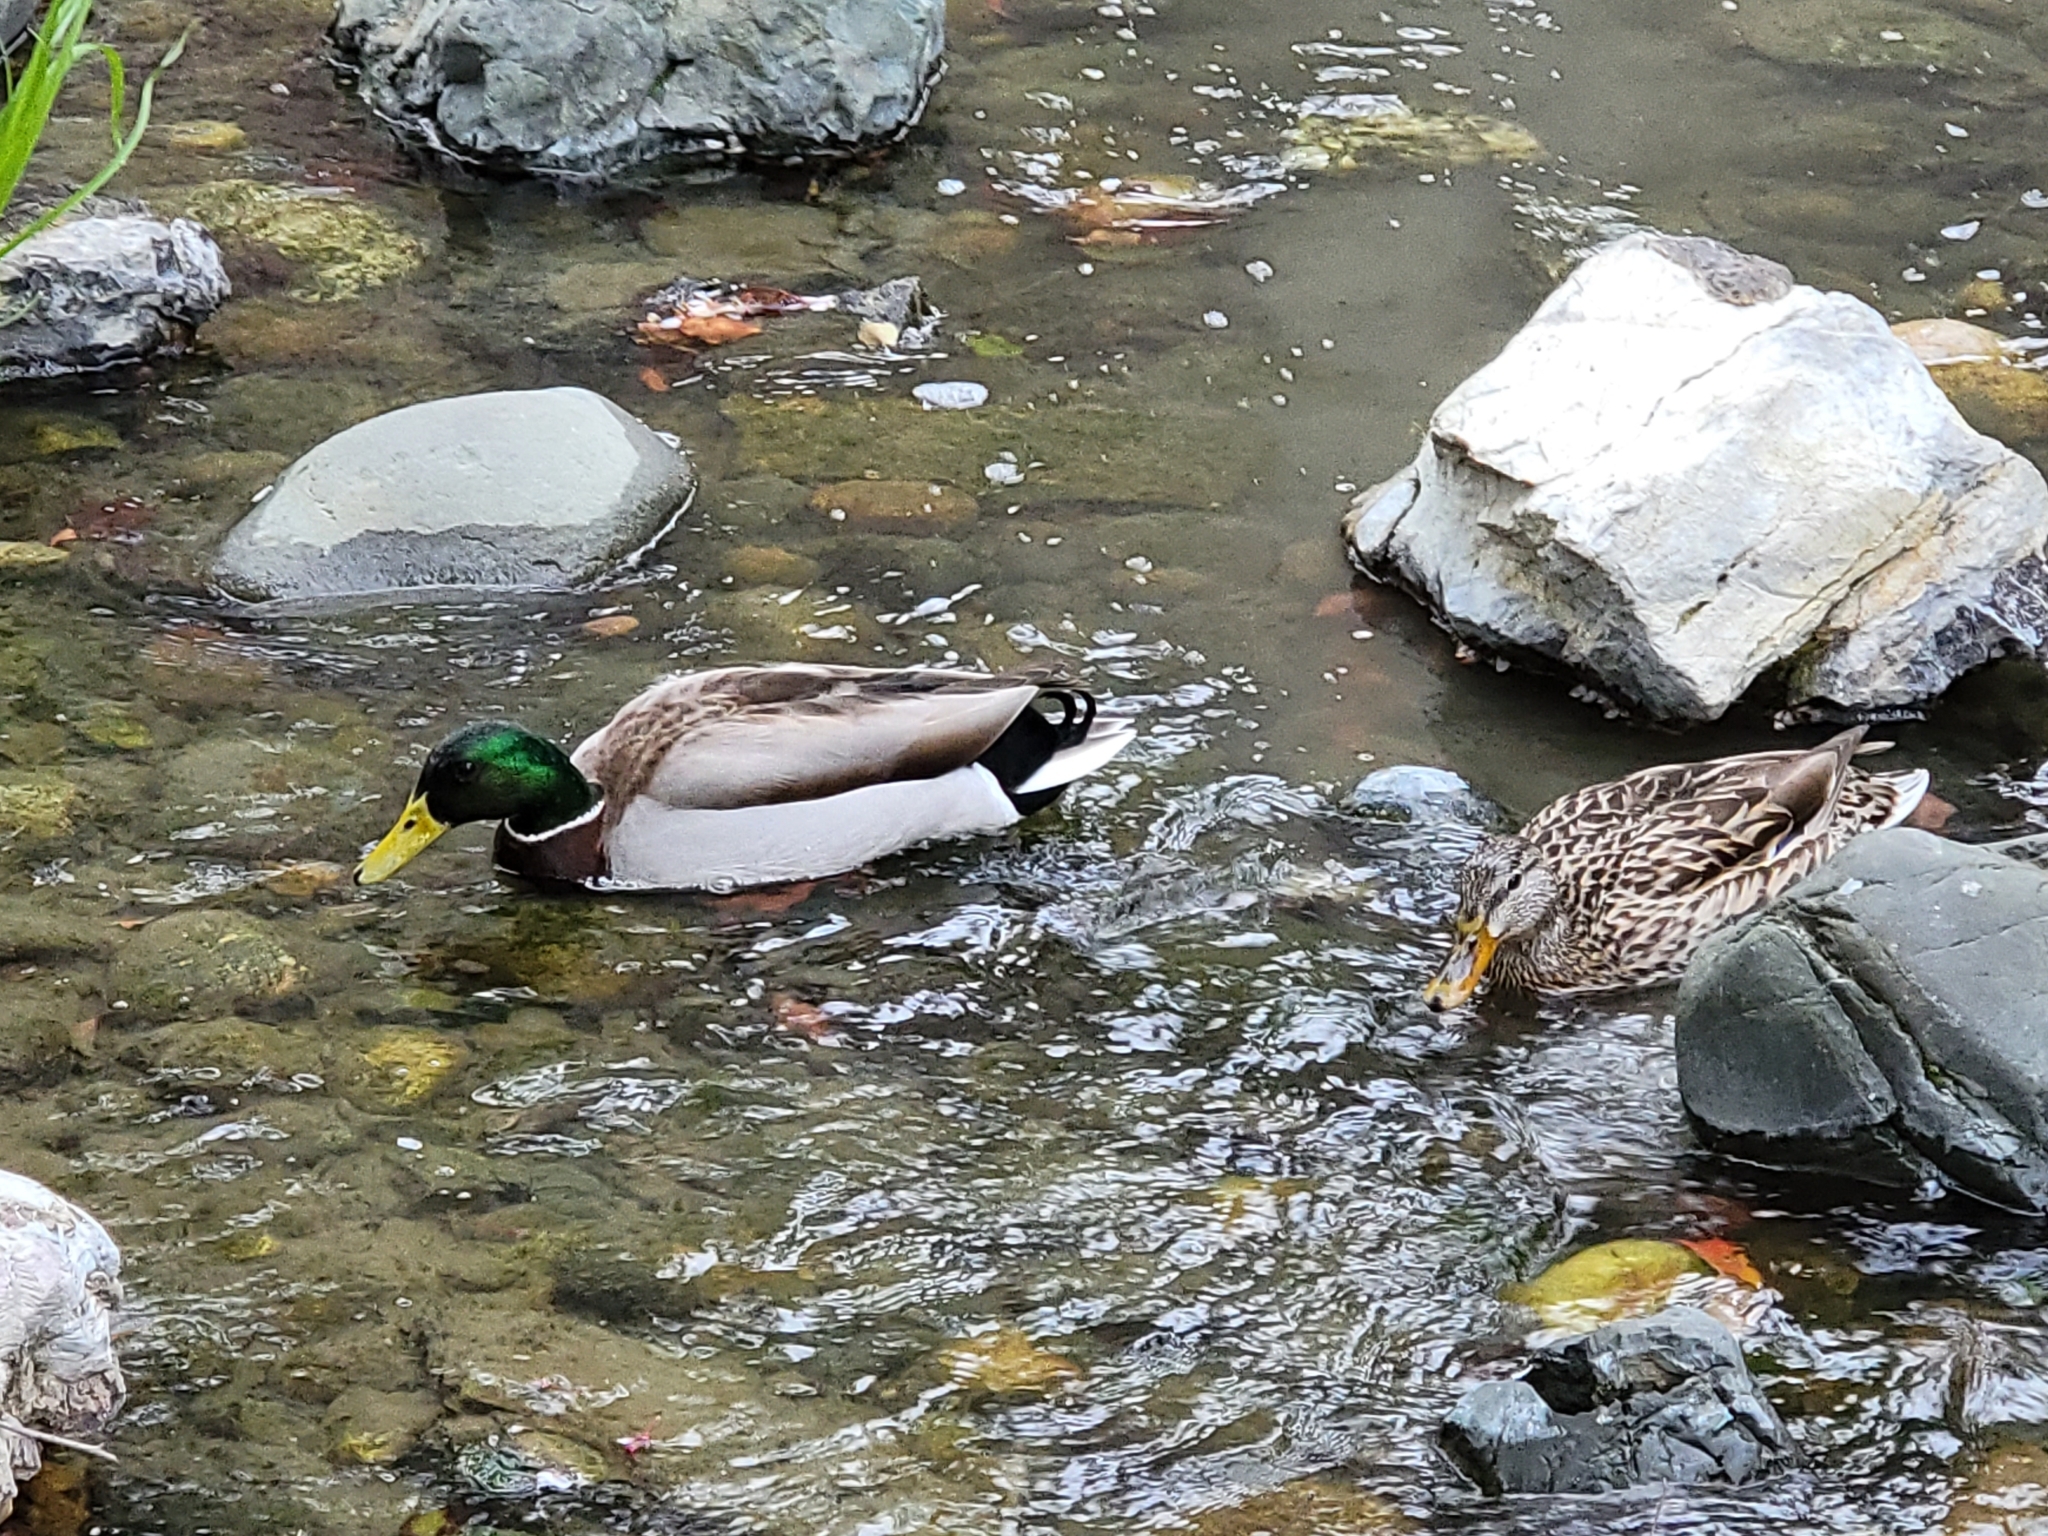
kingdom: Animalia
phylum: Chordata
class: Aves
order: Anseriformes
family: Anatidae
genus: Anas
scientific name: Anas platyrhynchos
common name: Mallard
